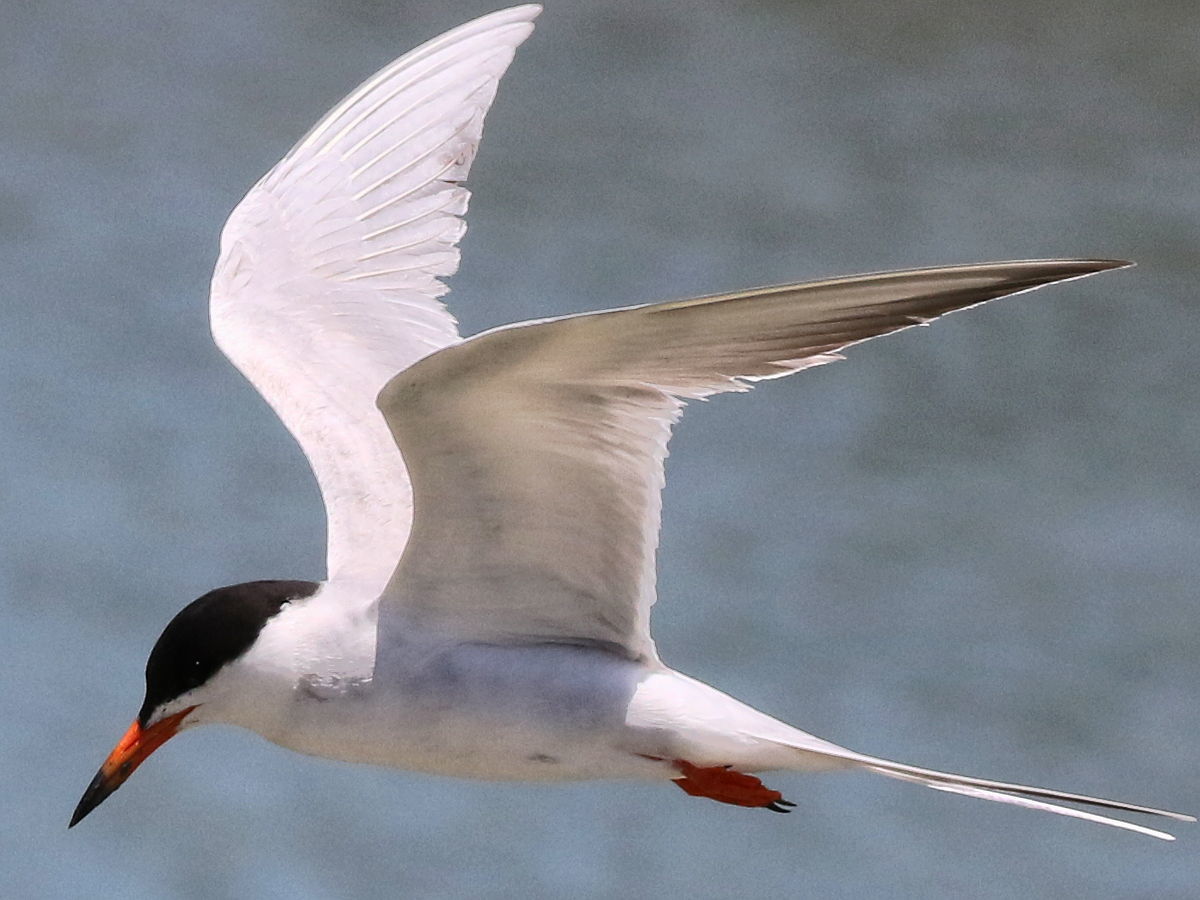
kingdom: Animalia
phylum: Chordata
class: Aves
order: Charadriiformes
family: Laridae
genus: Sterna
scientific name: Sterna forsteri
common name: Forster's tern
